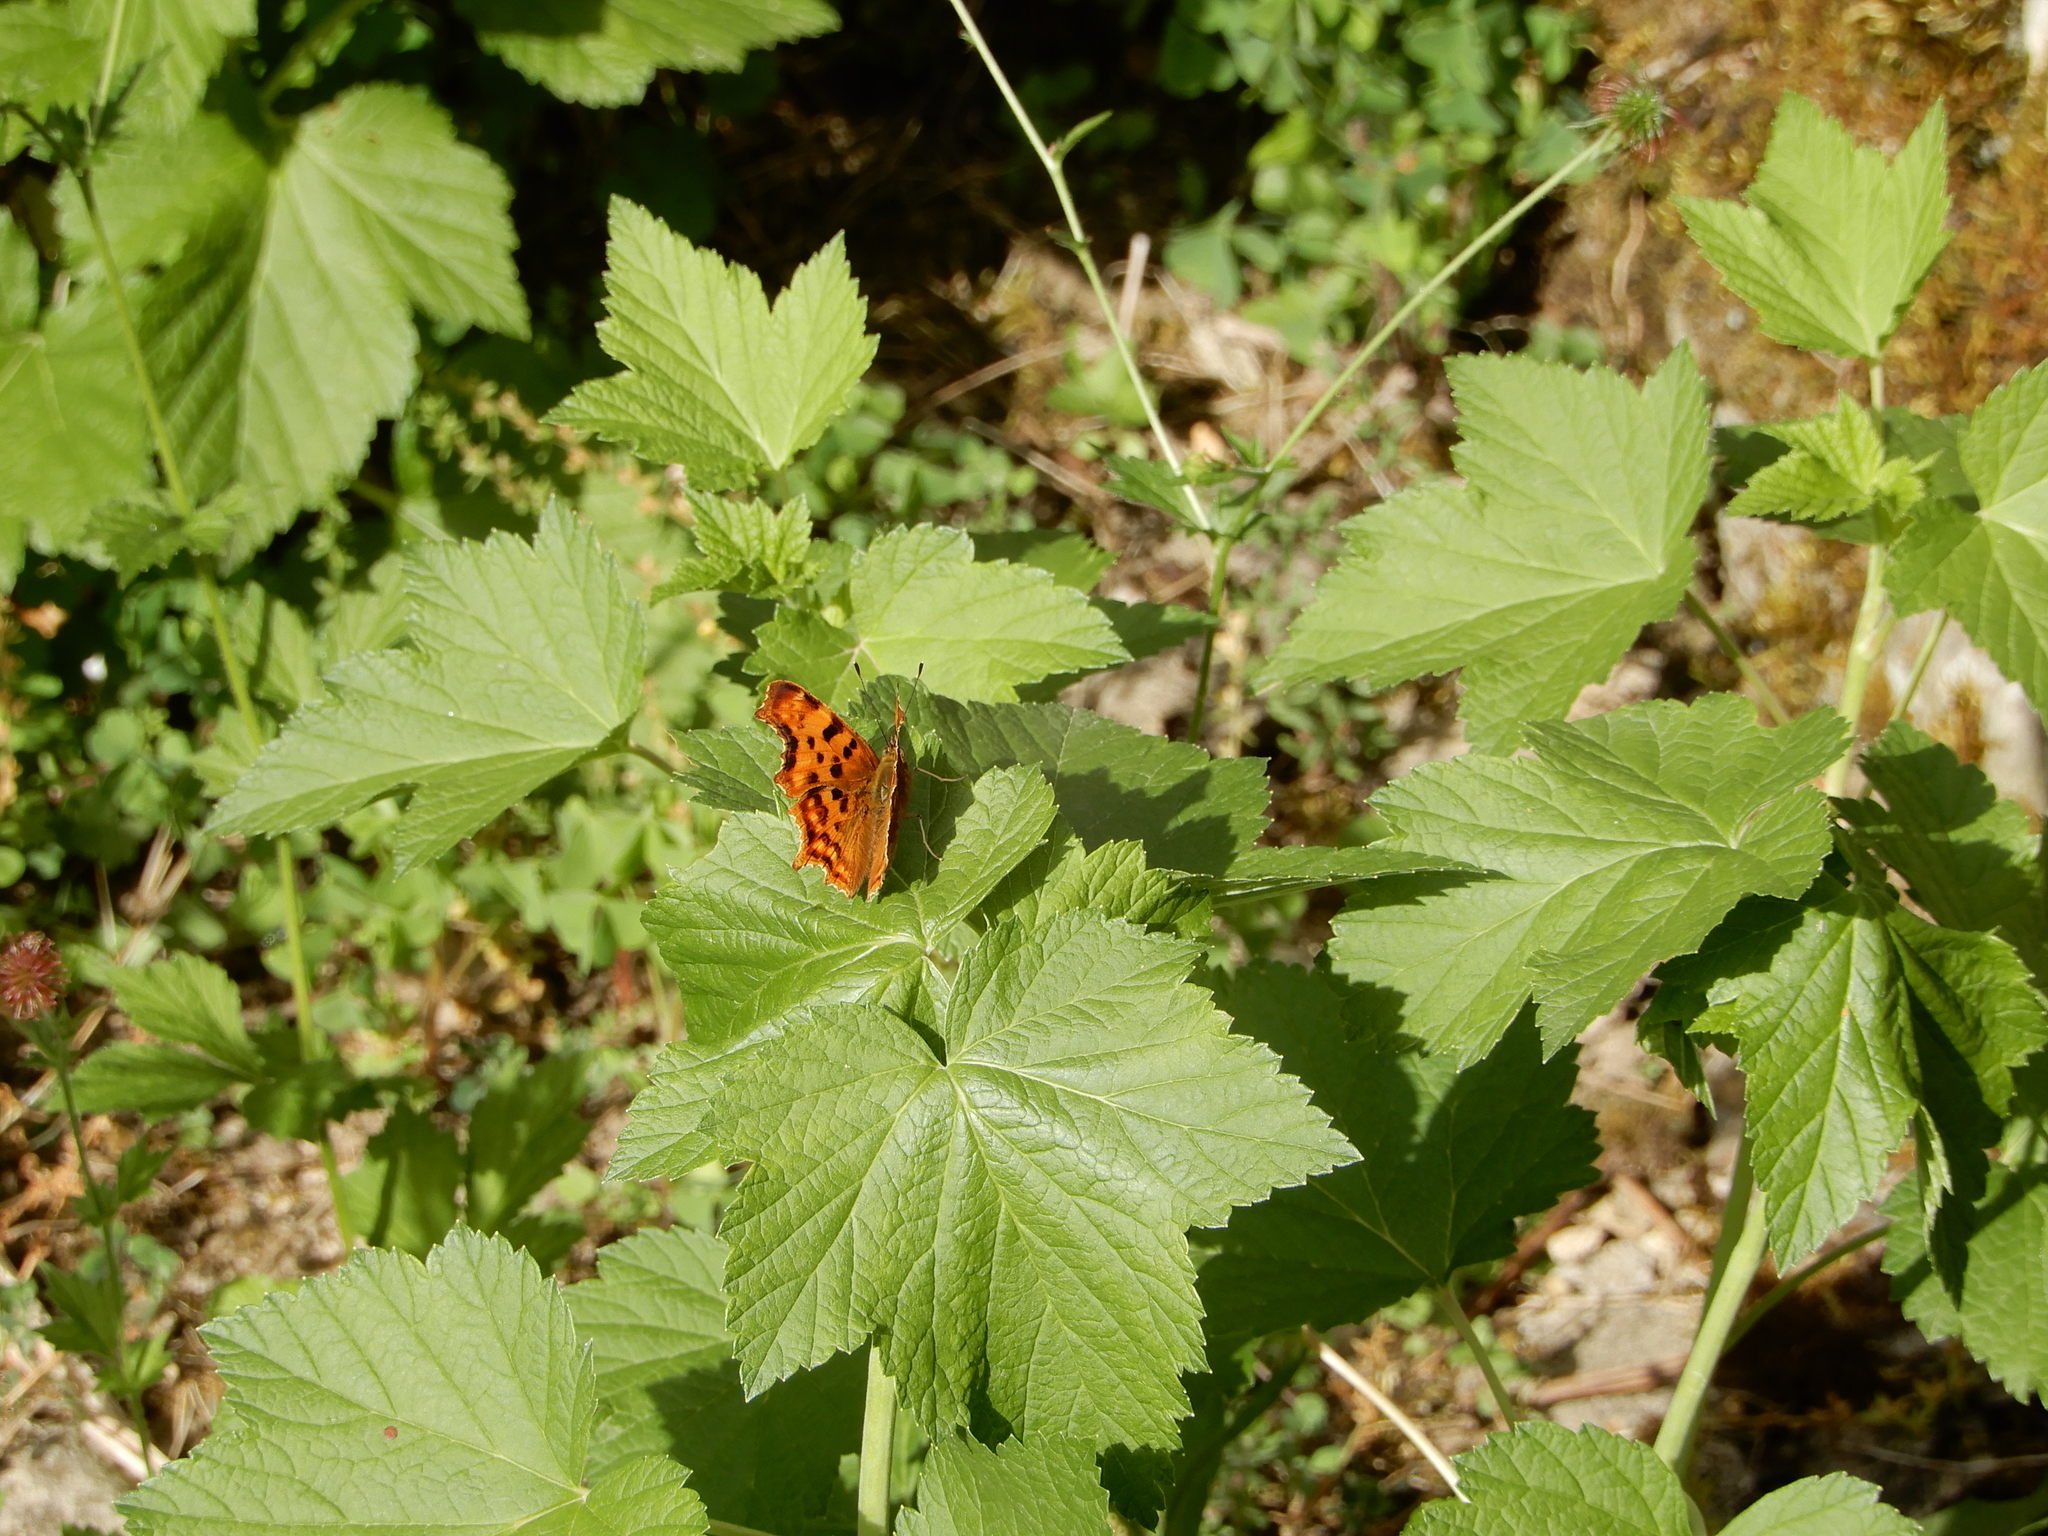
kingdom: Animalia
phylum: Arthropoda
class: Insecta
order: Lepidoptera
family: Nymphalidae
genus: Polygonia
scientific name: Polygonia c-album
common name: Comma
